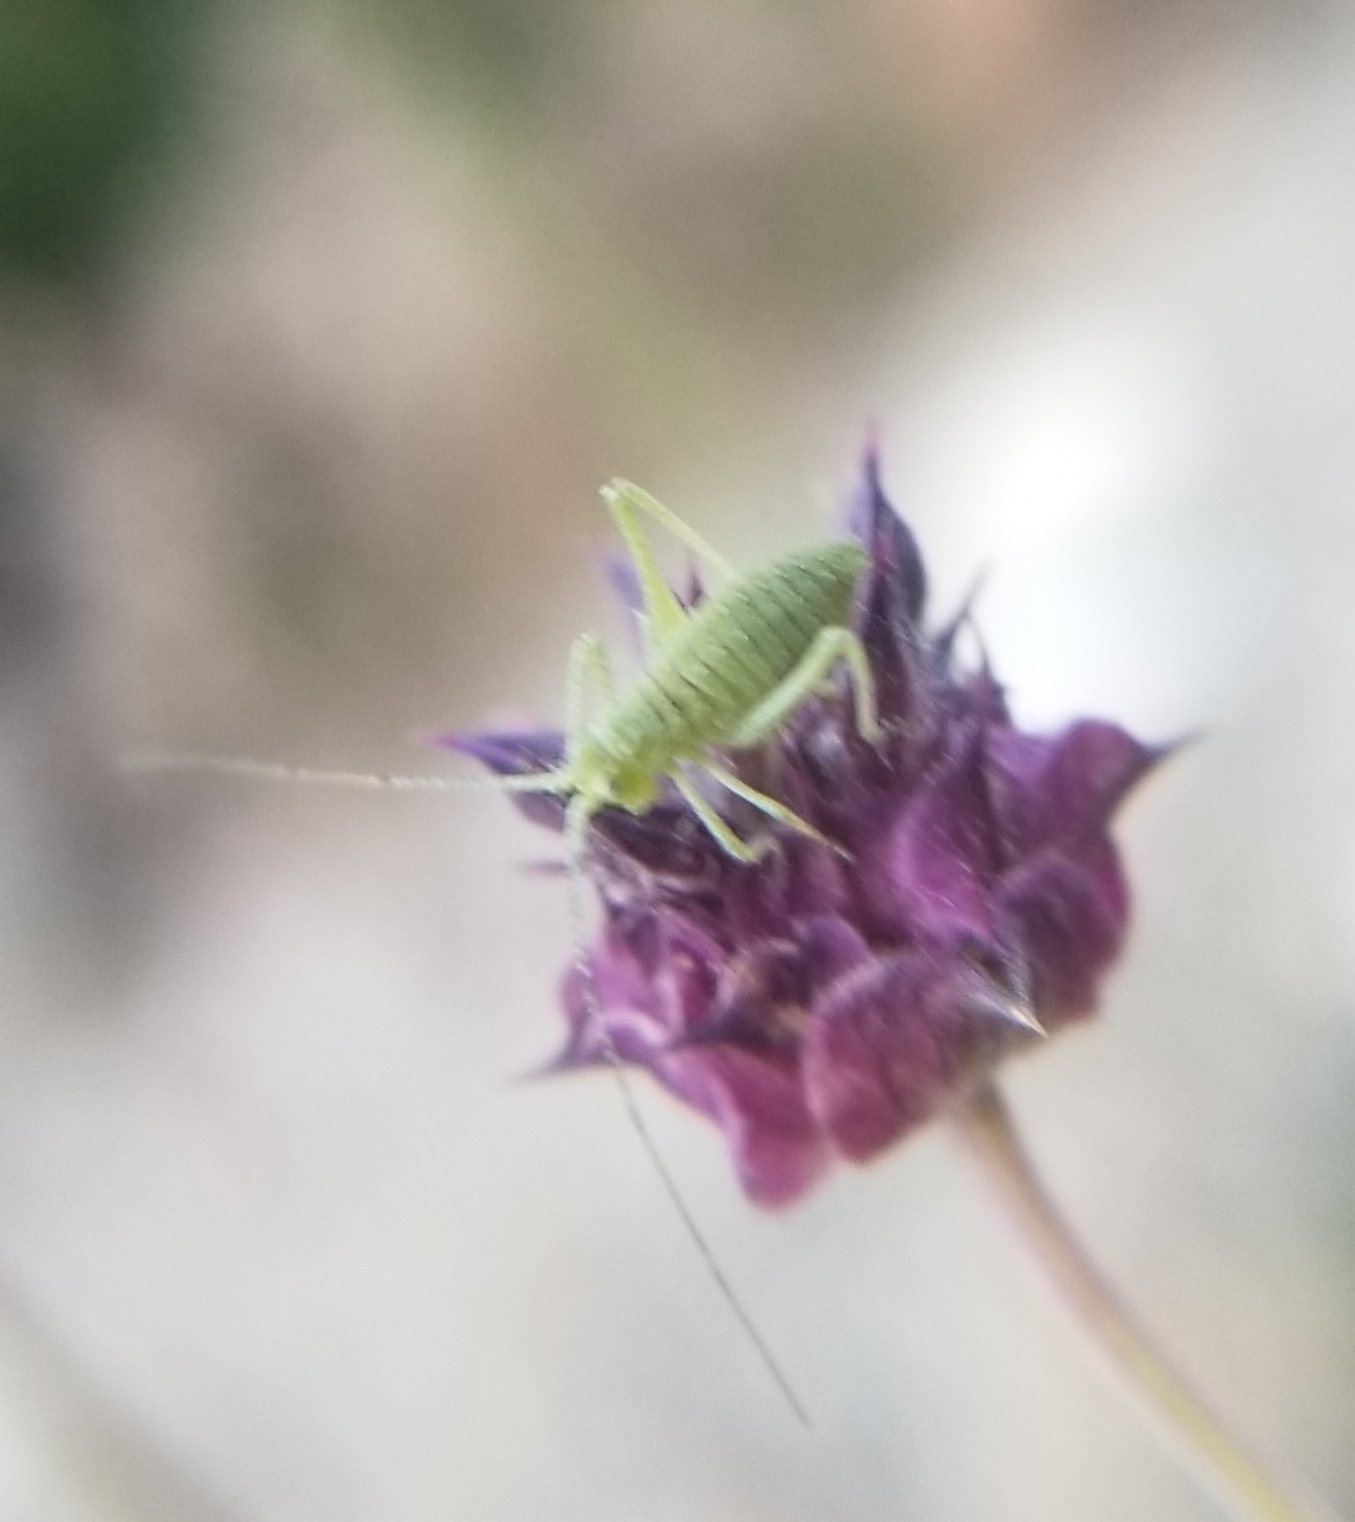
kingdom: Animalia
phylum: Arthropoda
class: Insecta
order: Orthoptera
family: Tettigoniidae
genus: Platylyra
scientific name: Platylyra californica
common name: Chaparral false katydid
